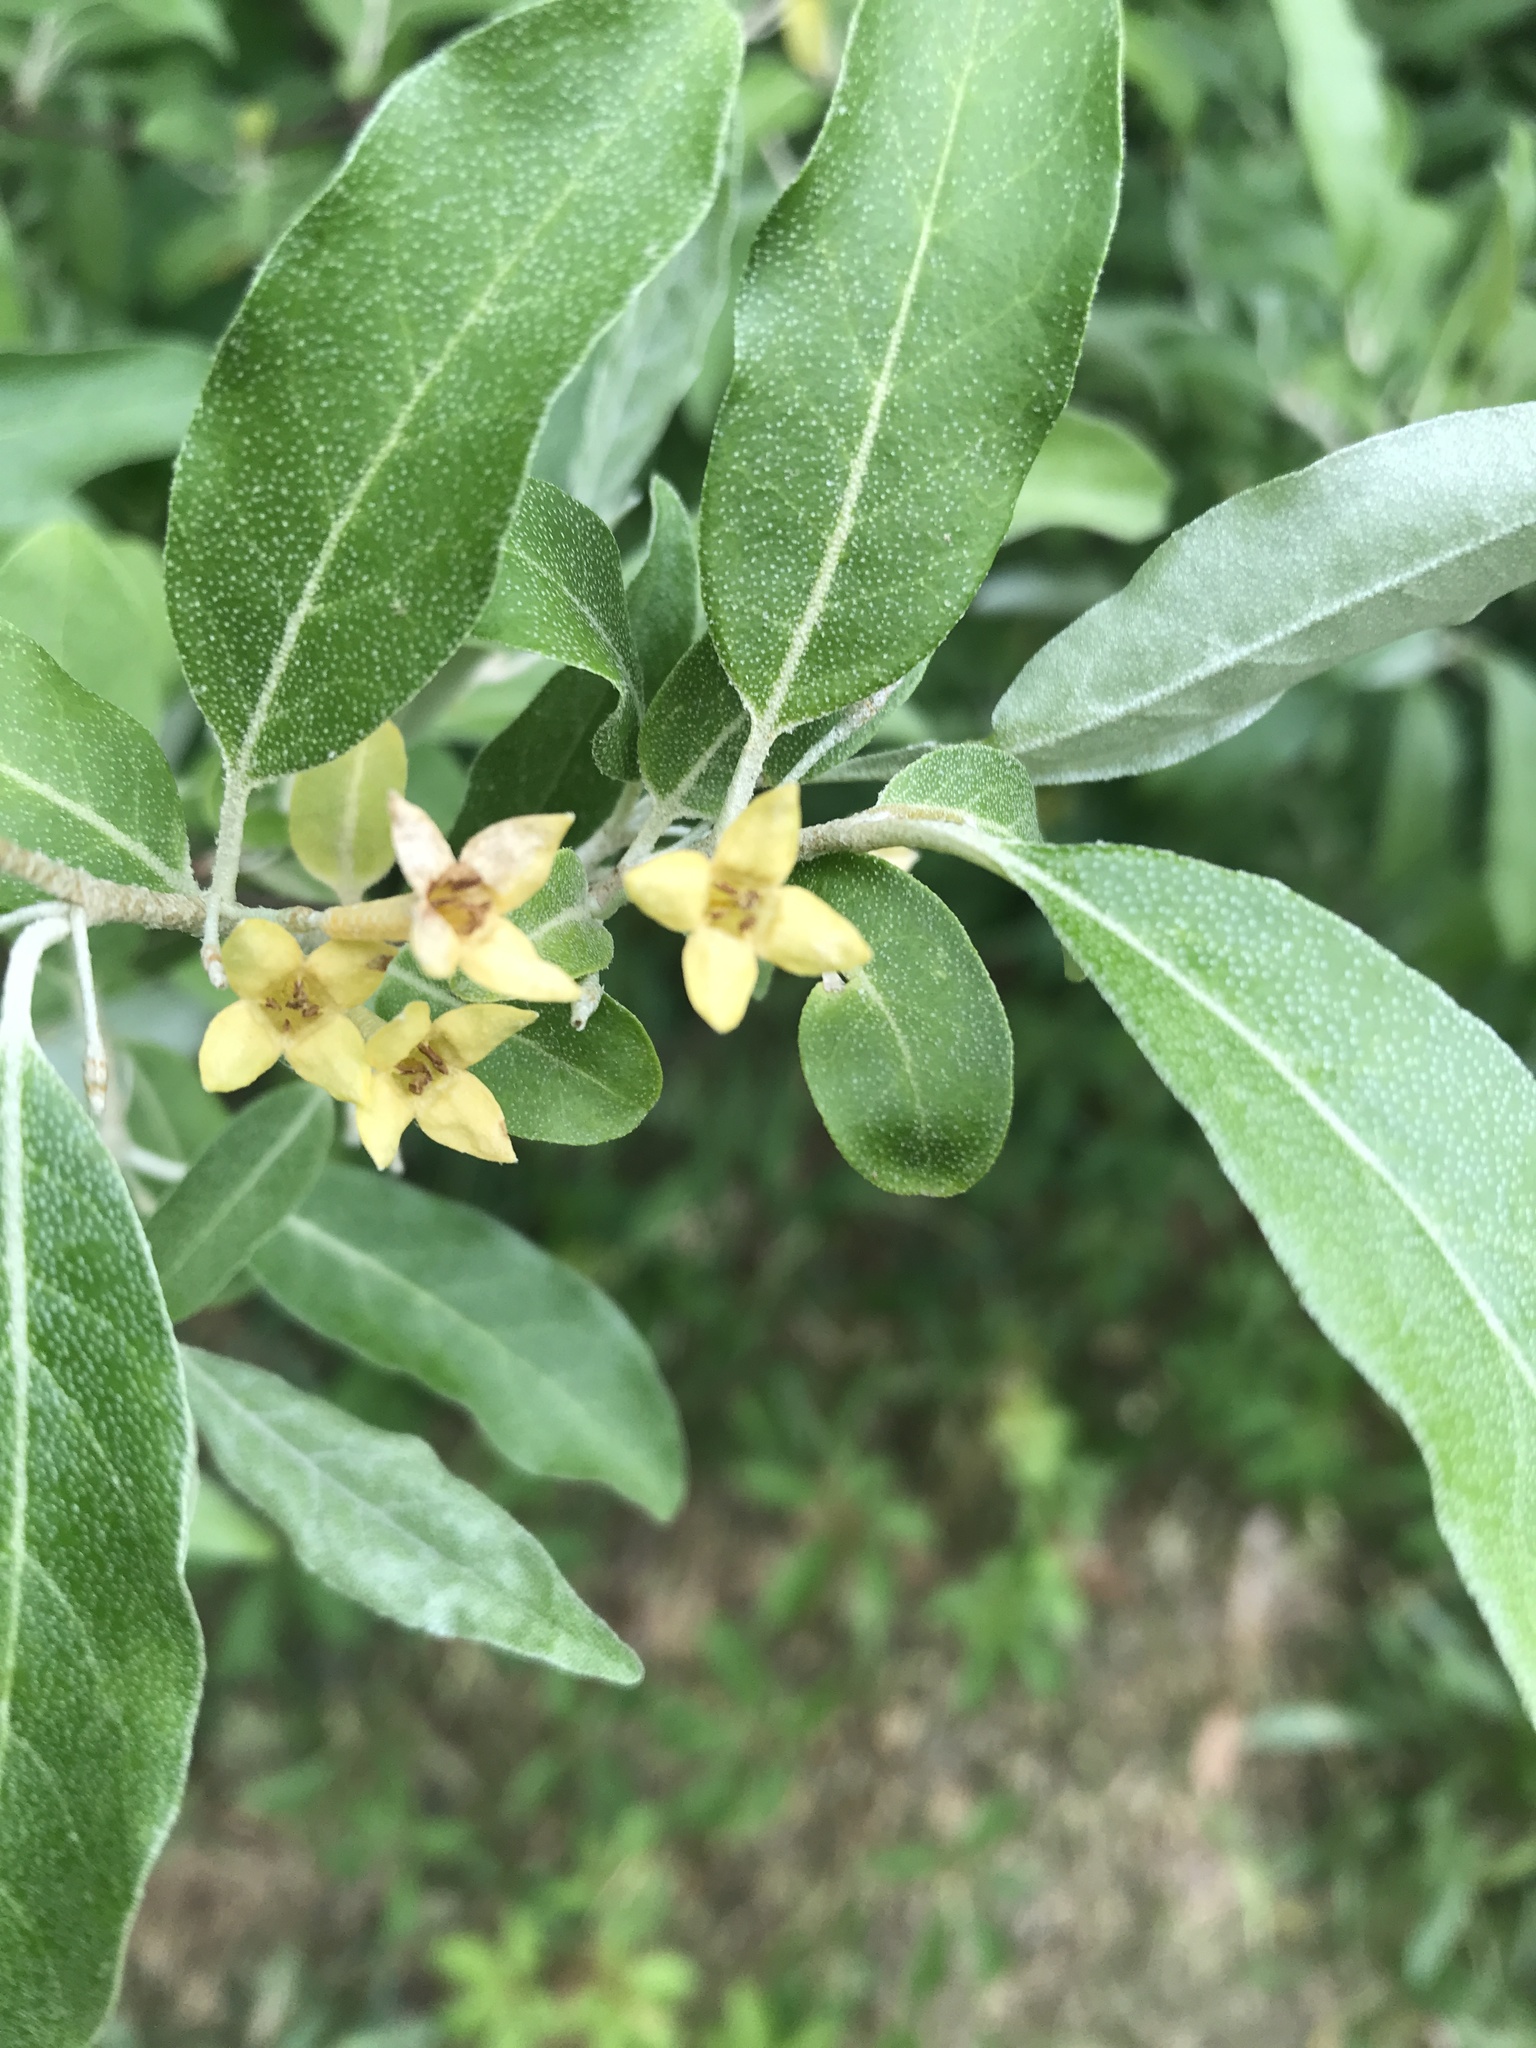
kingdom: Plantae
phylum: Tracheophyta
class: Magnoliopsida
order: Rosales
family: Elaeagnaceae
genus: Elaeagnus
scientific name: Elaeagnus umbellata
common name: Autumn olive
